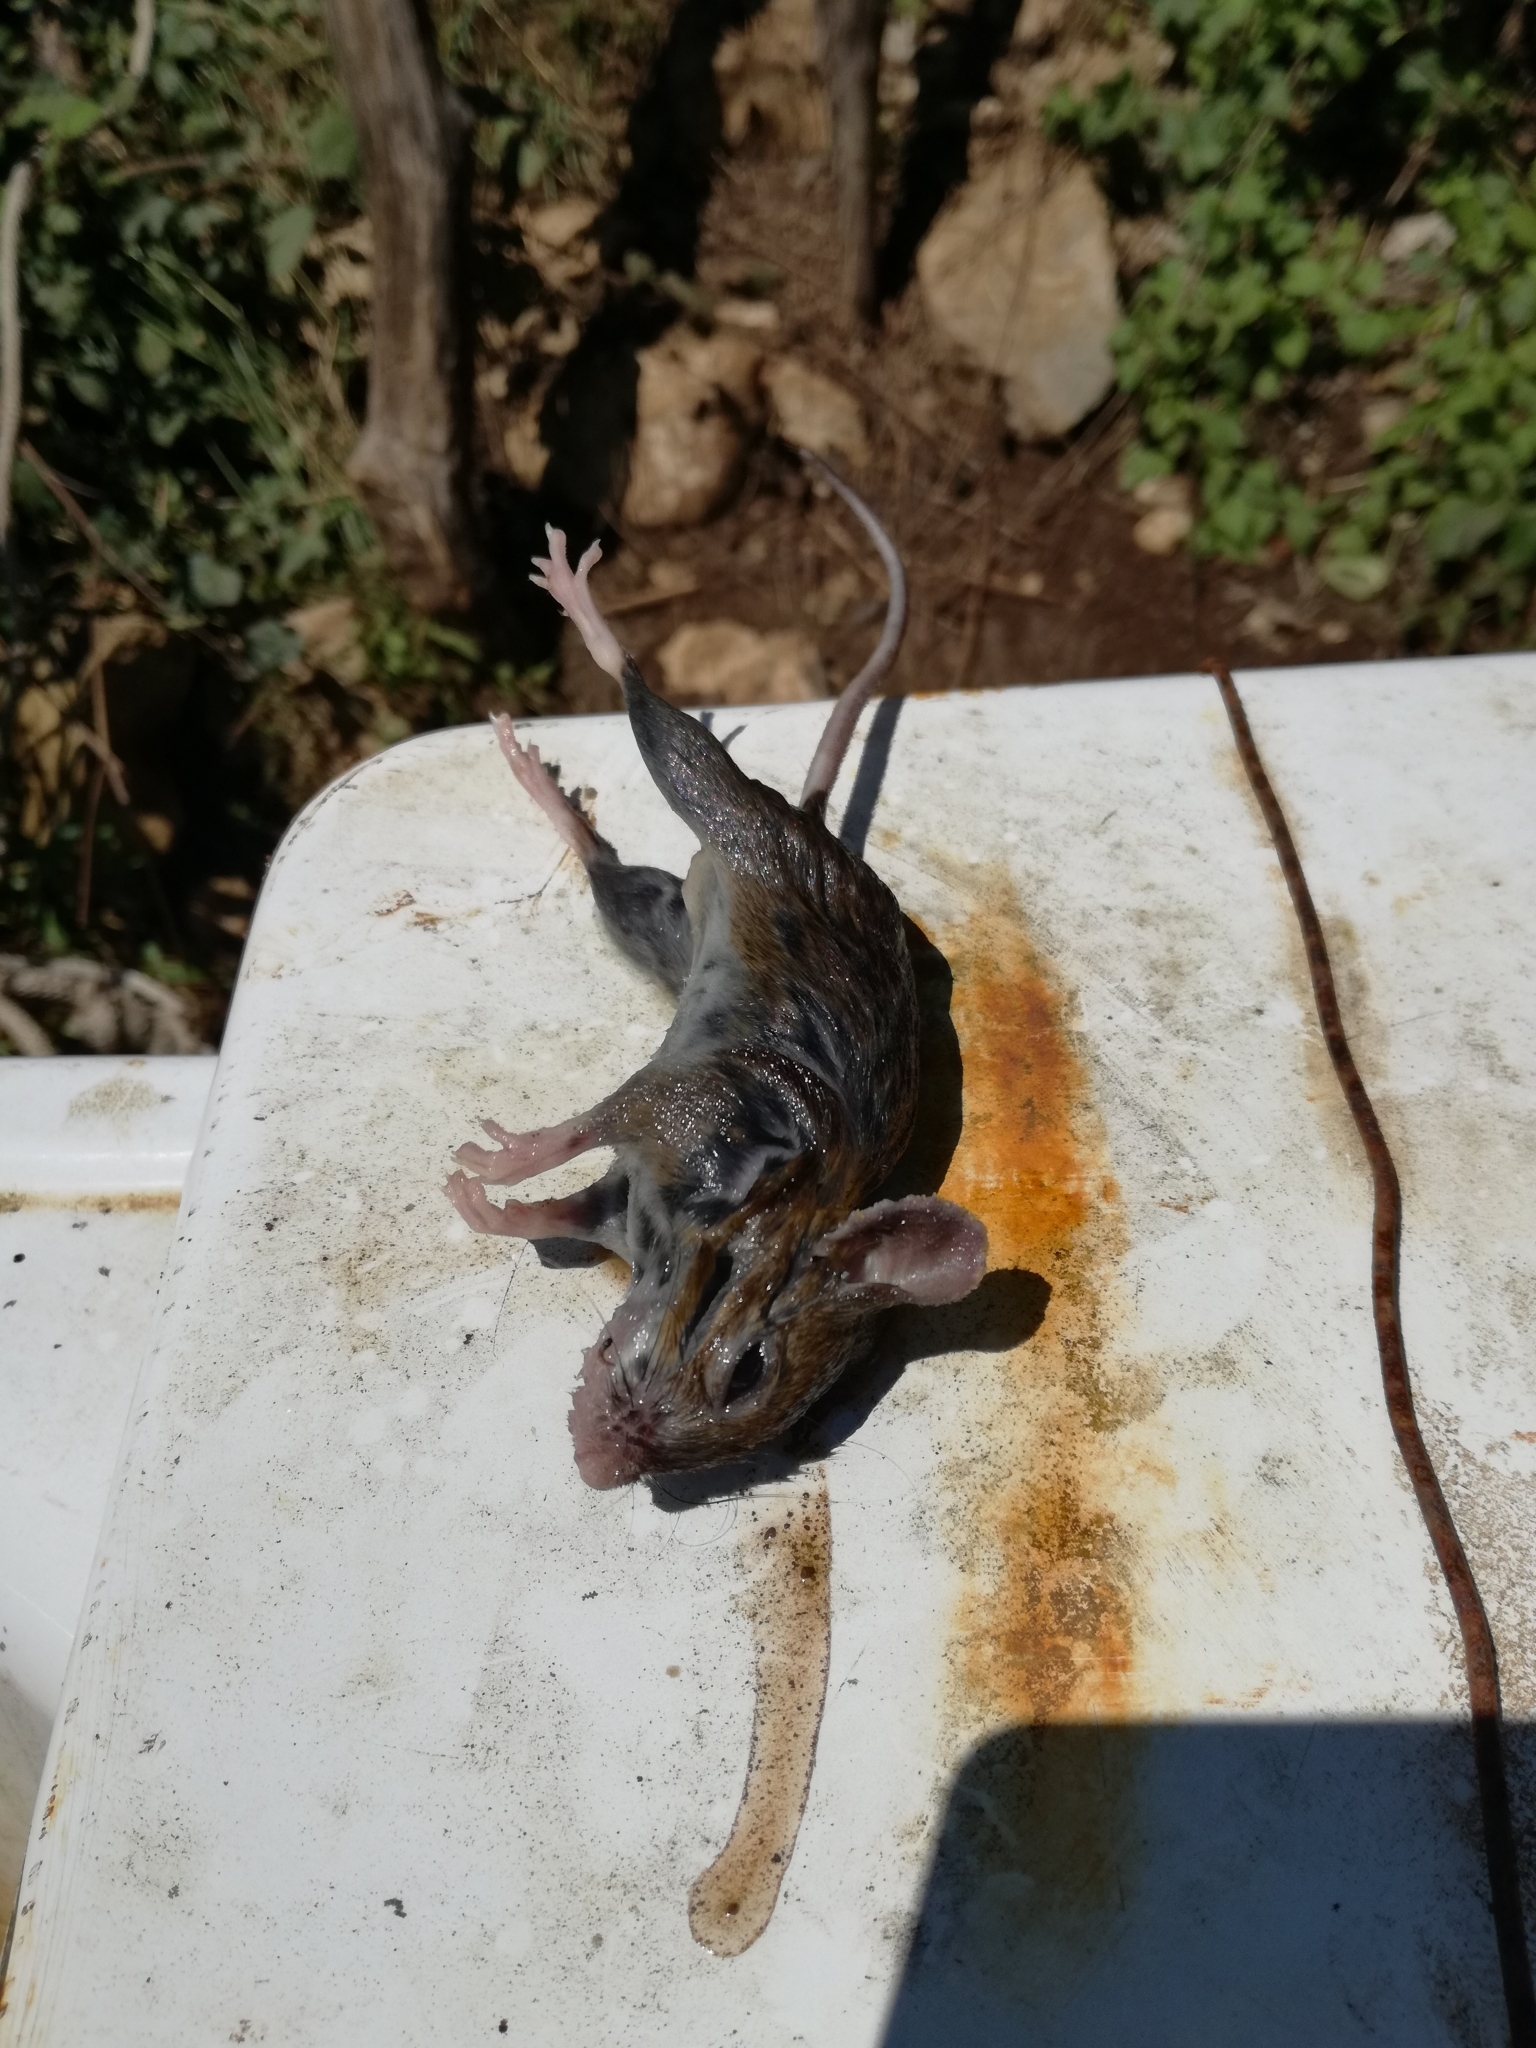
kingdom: Animalia
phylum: Chordata
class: Mammalia
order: Rodentia
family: Muridae
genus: Rattus
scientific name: Rattus rattus
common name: Black rat
